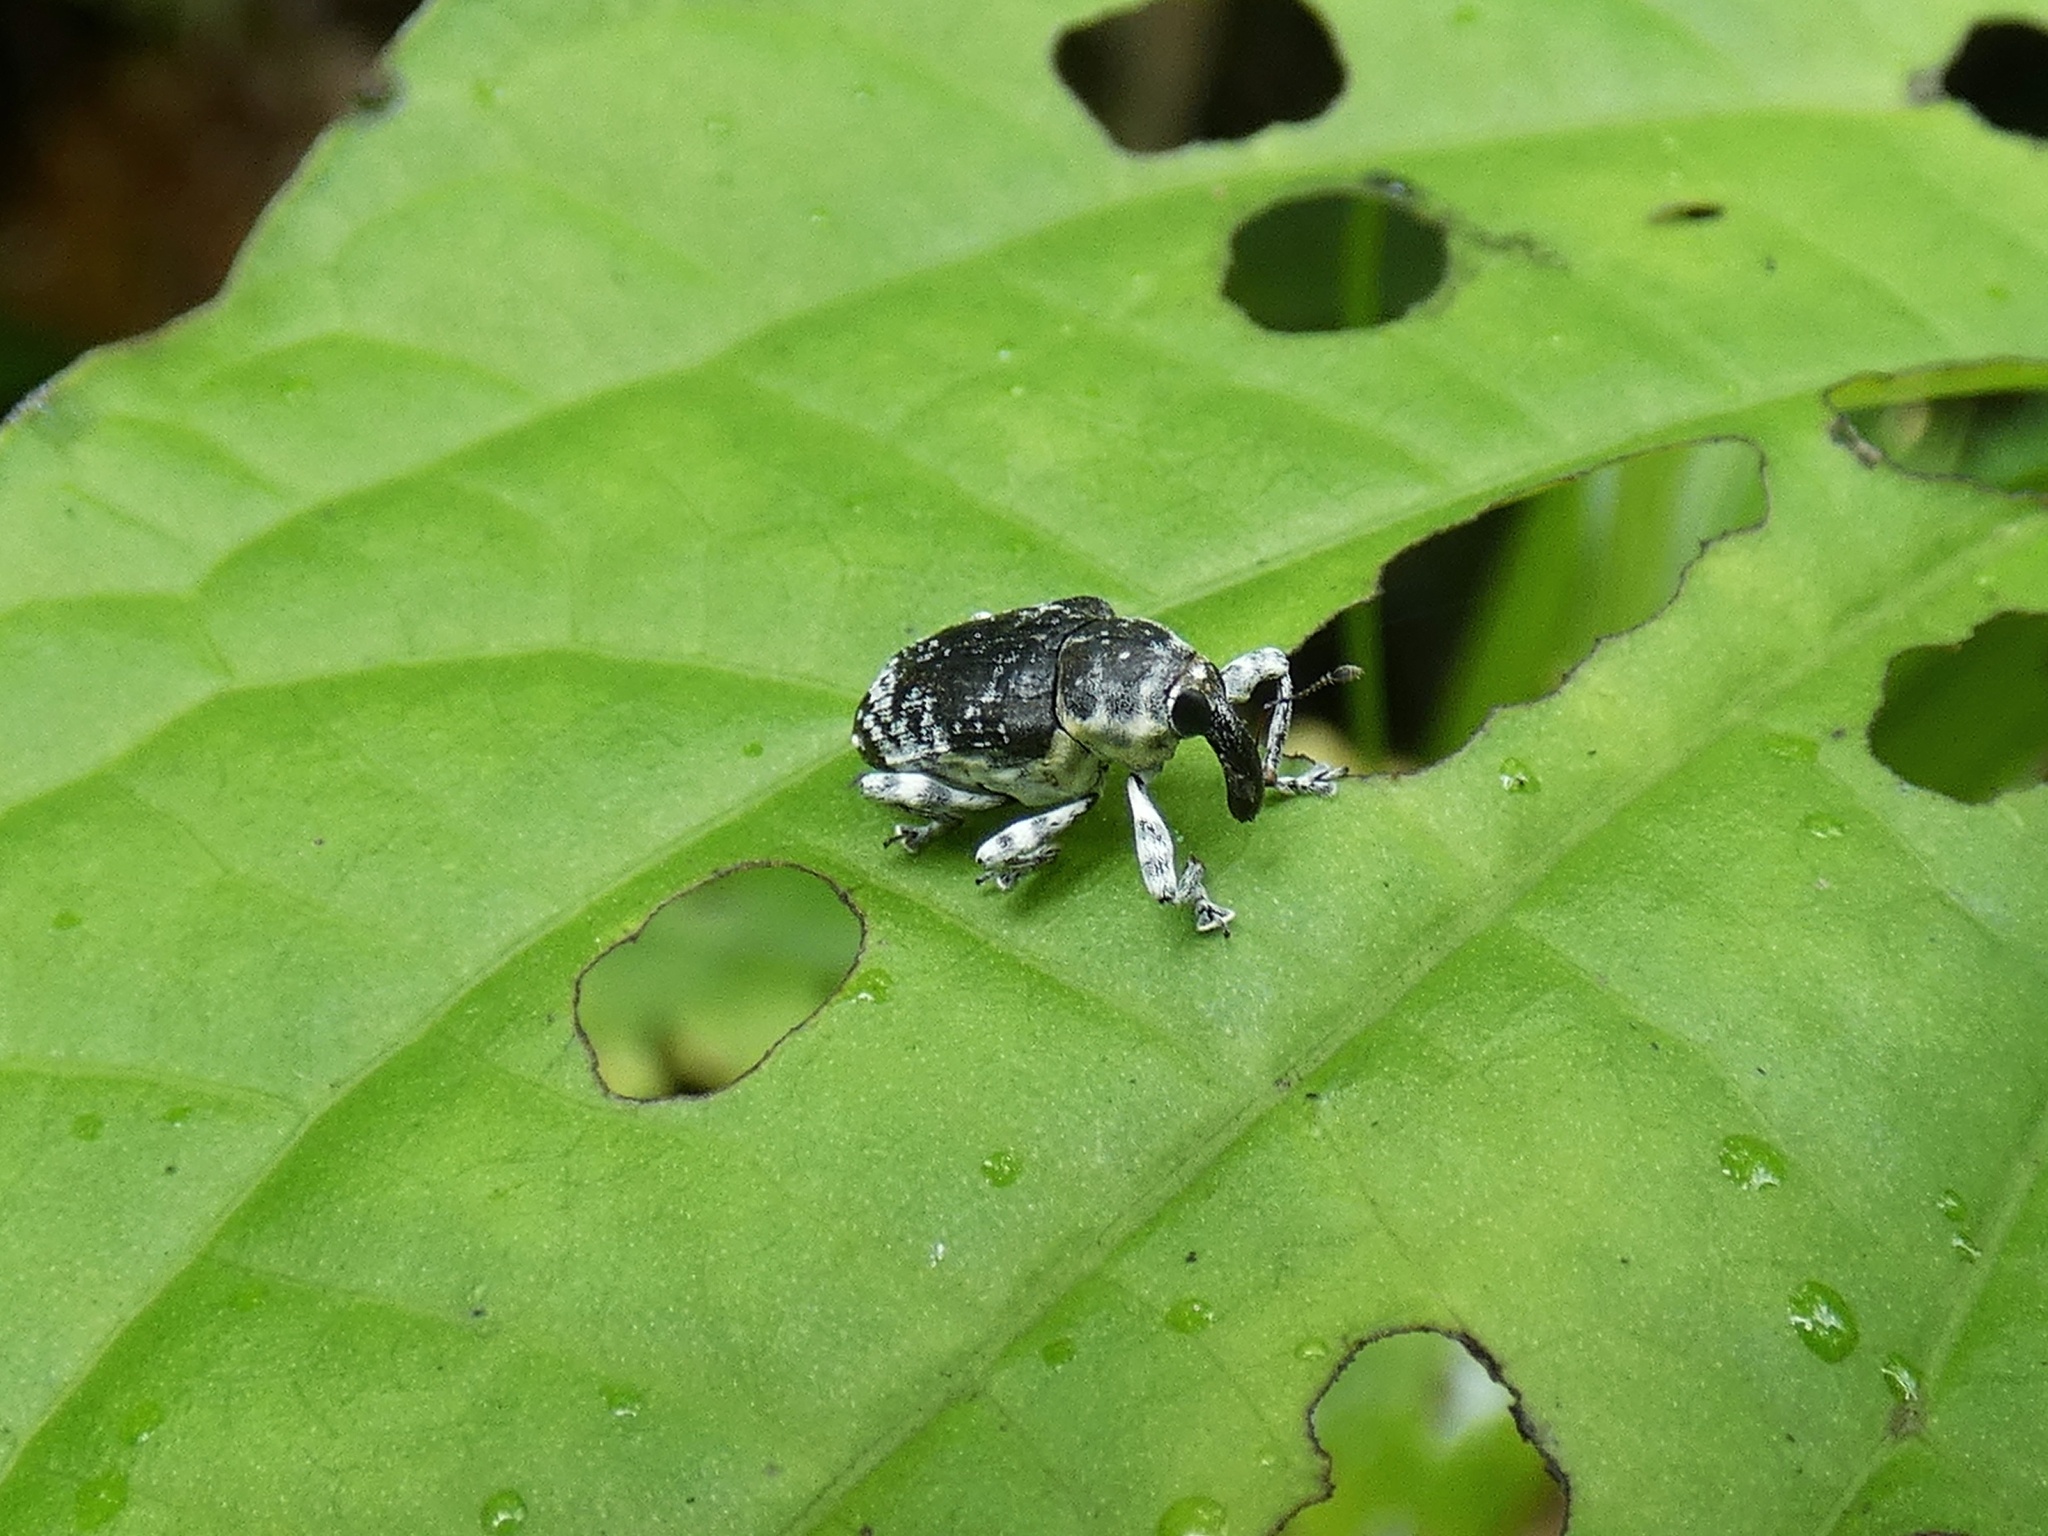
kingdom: Animalia
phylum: Arthropoda
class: Insecta
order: Coleoptera
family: Curculionidae
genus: Peridinetus
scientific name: Peridinetus irroratus
